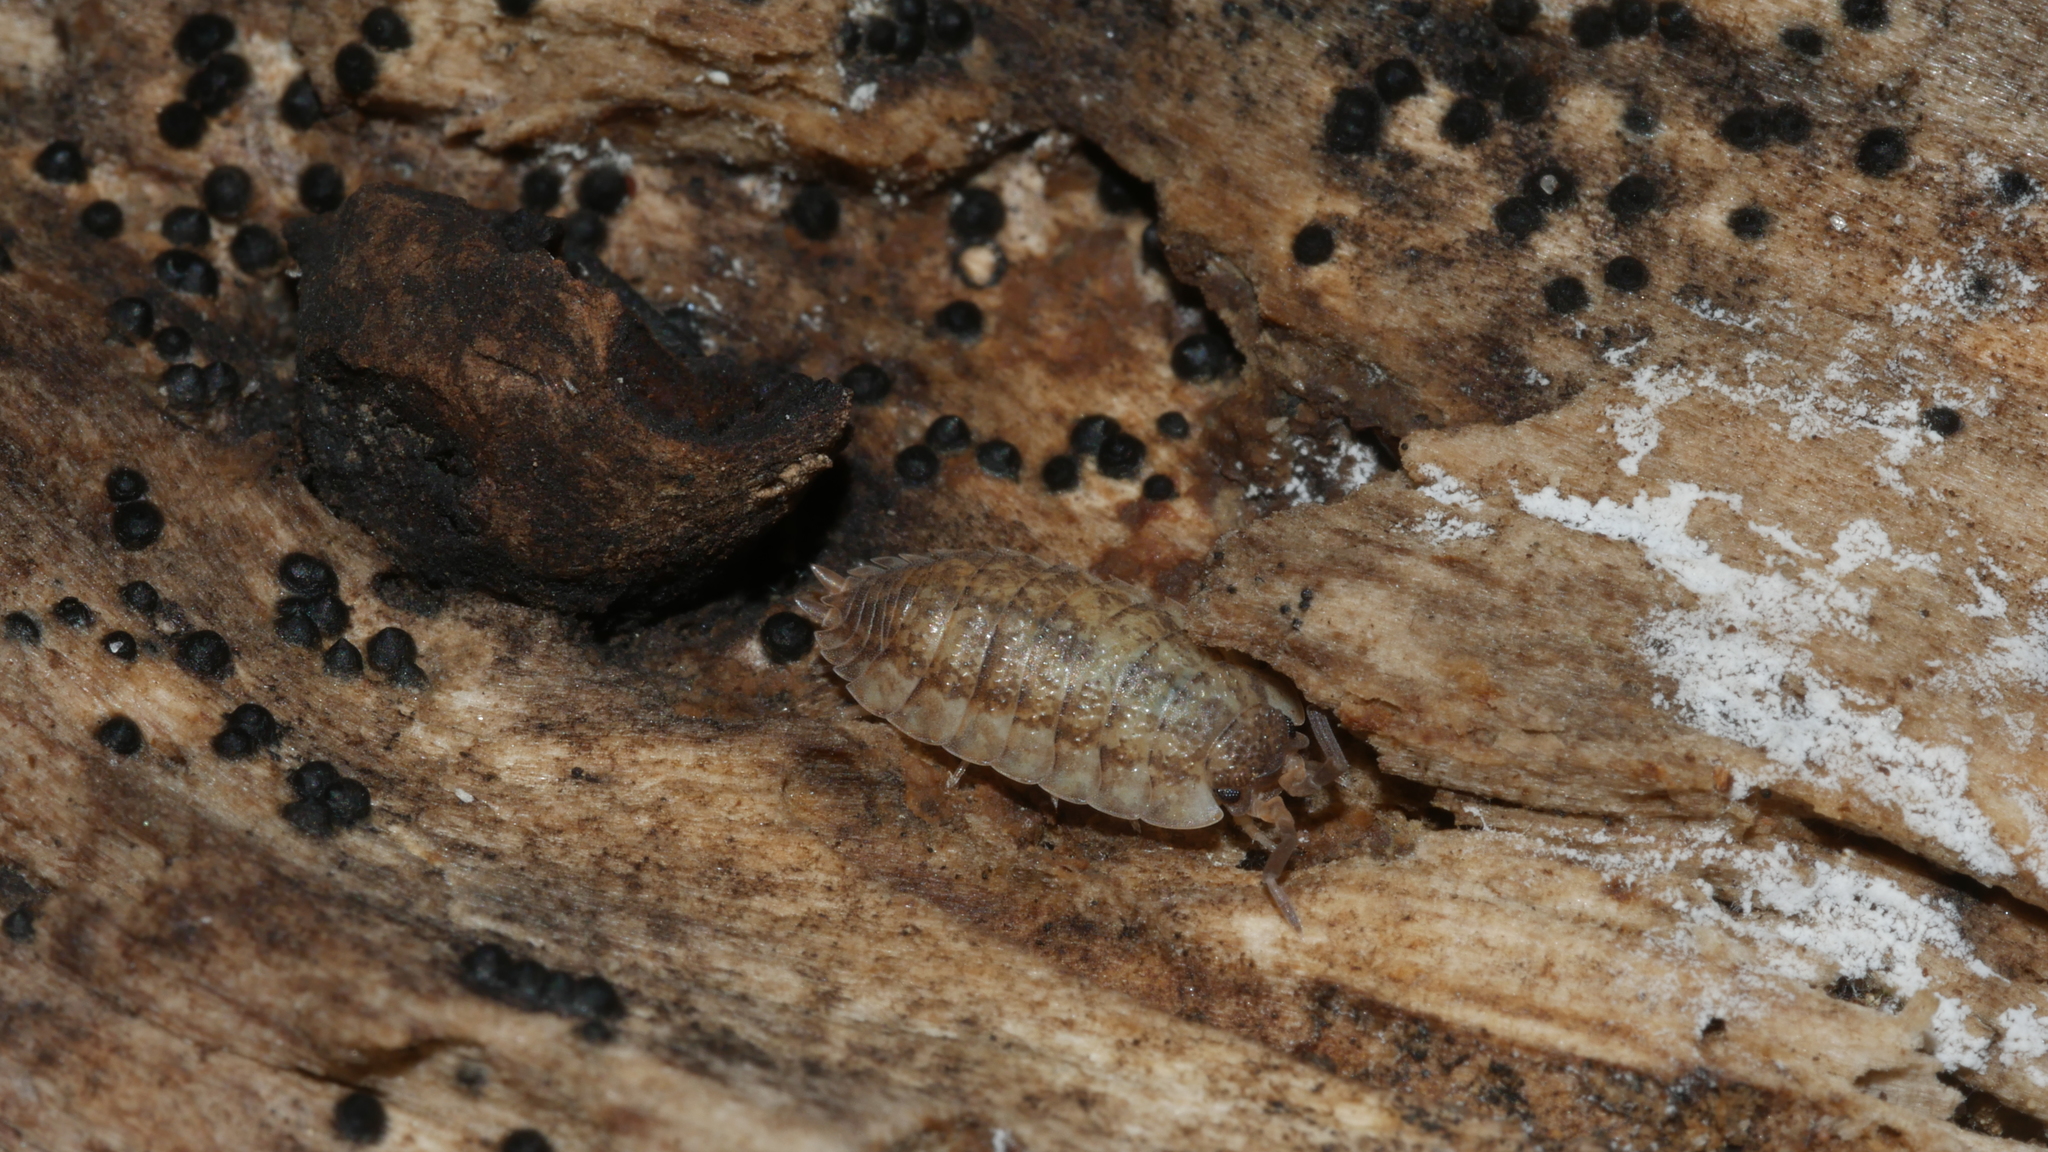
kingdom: Animalia
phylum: Arthropoda
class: Malacostraca
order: Isopoda
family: Porcellionidae
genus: Porcellio
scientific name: Porcellio scaber
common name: Common rough woodlouse
